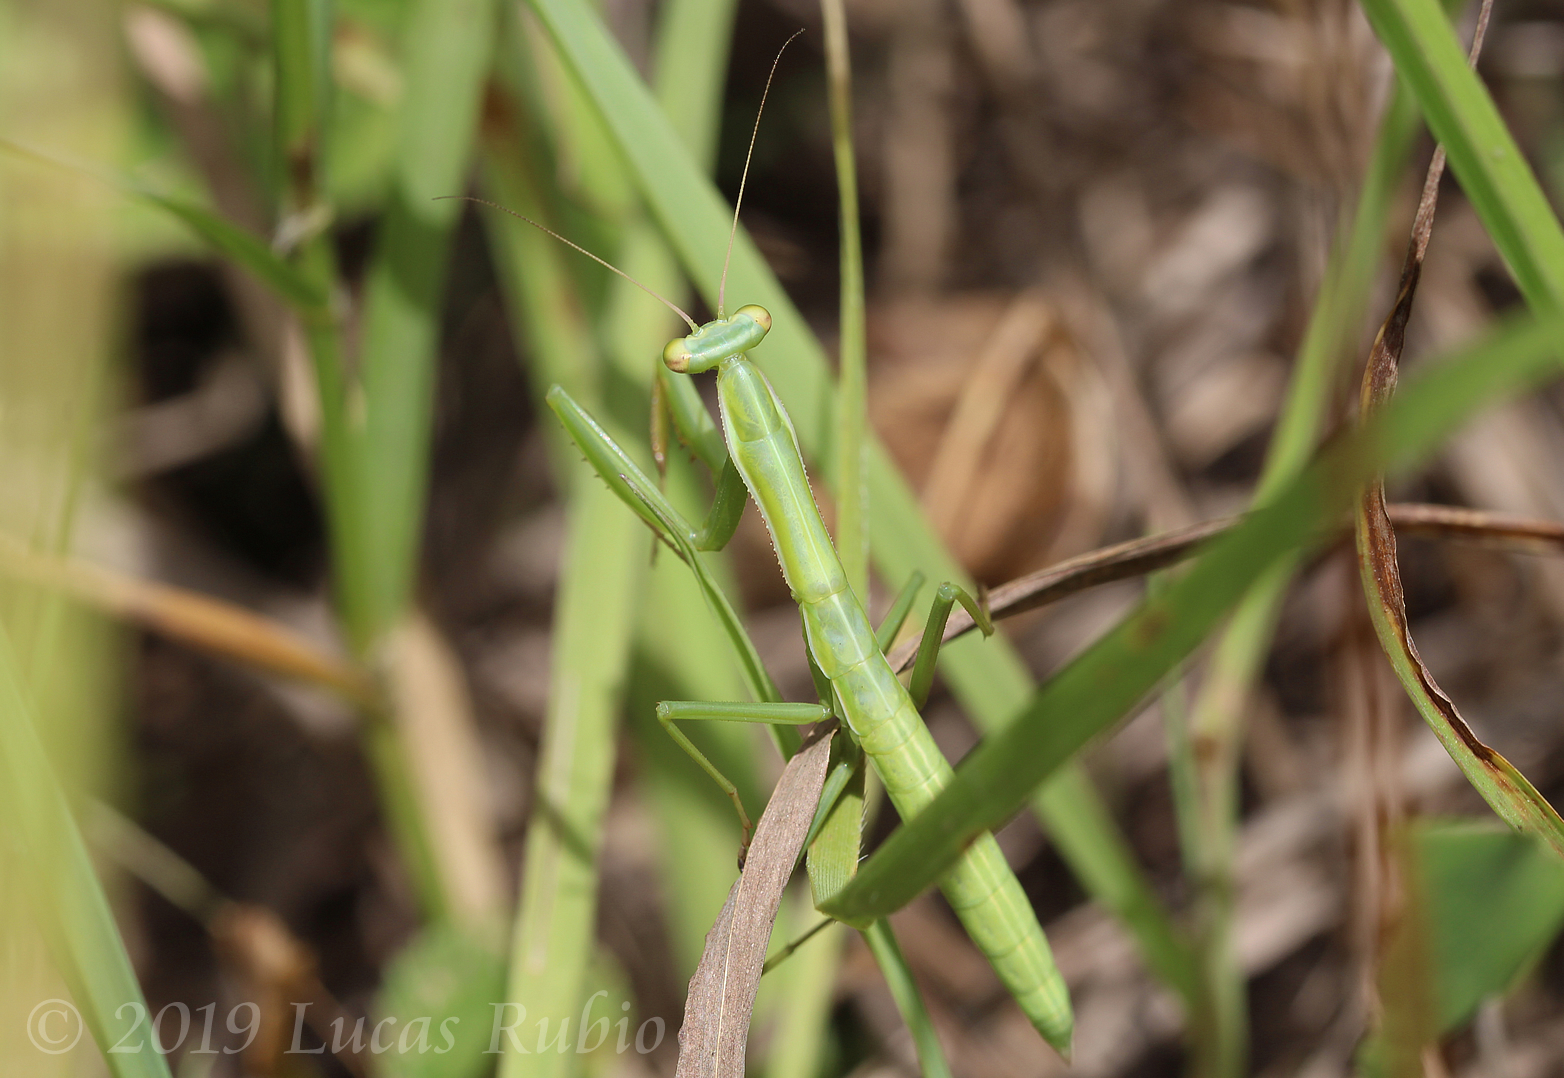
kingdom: Animalia
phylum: Arthropoda
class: Insecta
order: Mantodea
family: Coptopterygidae
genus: Coptopteryx
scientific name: Coptopteryx argentina
